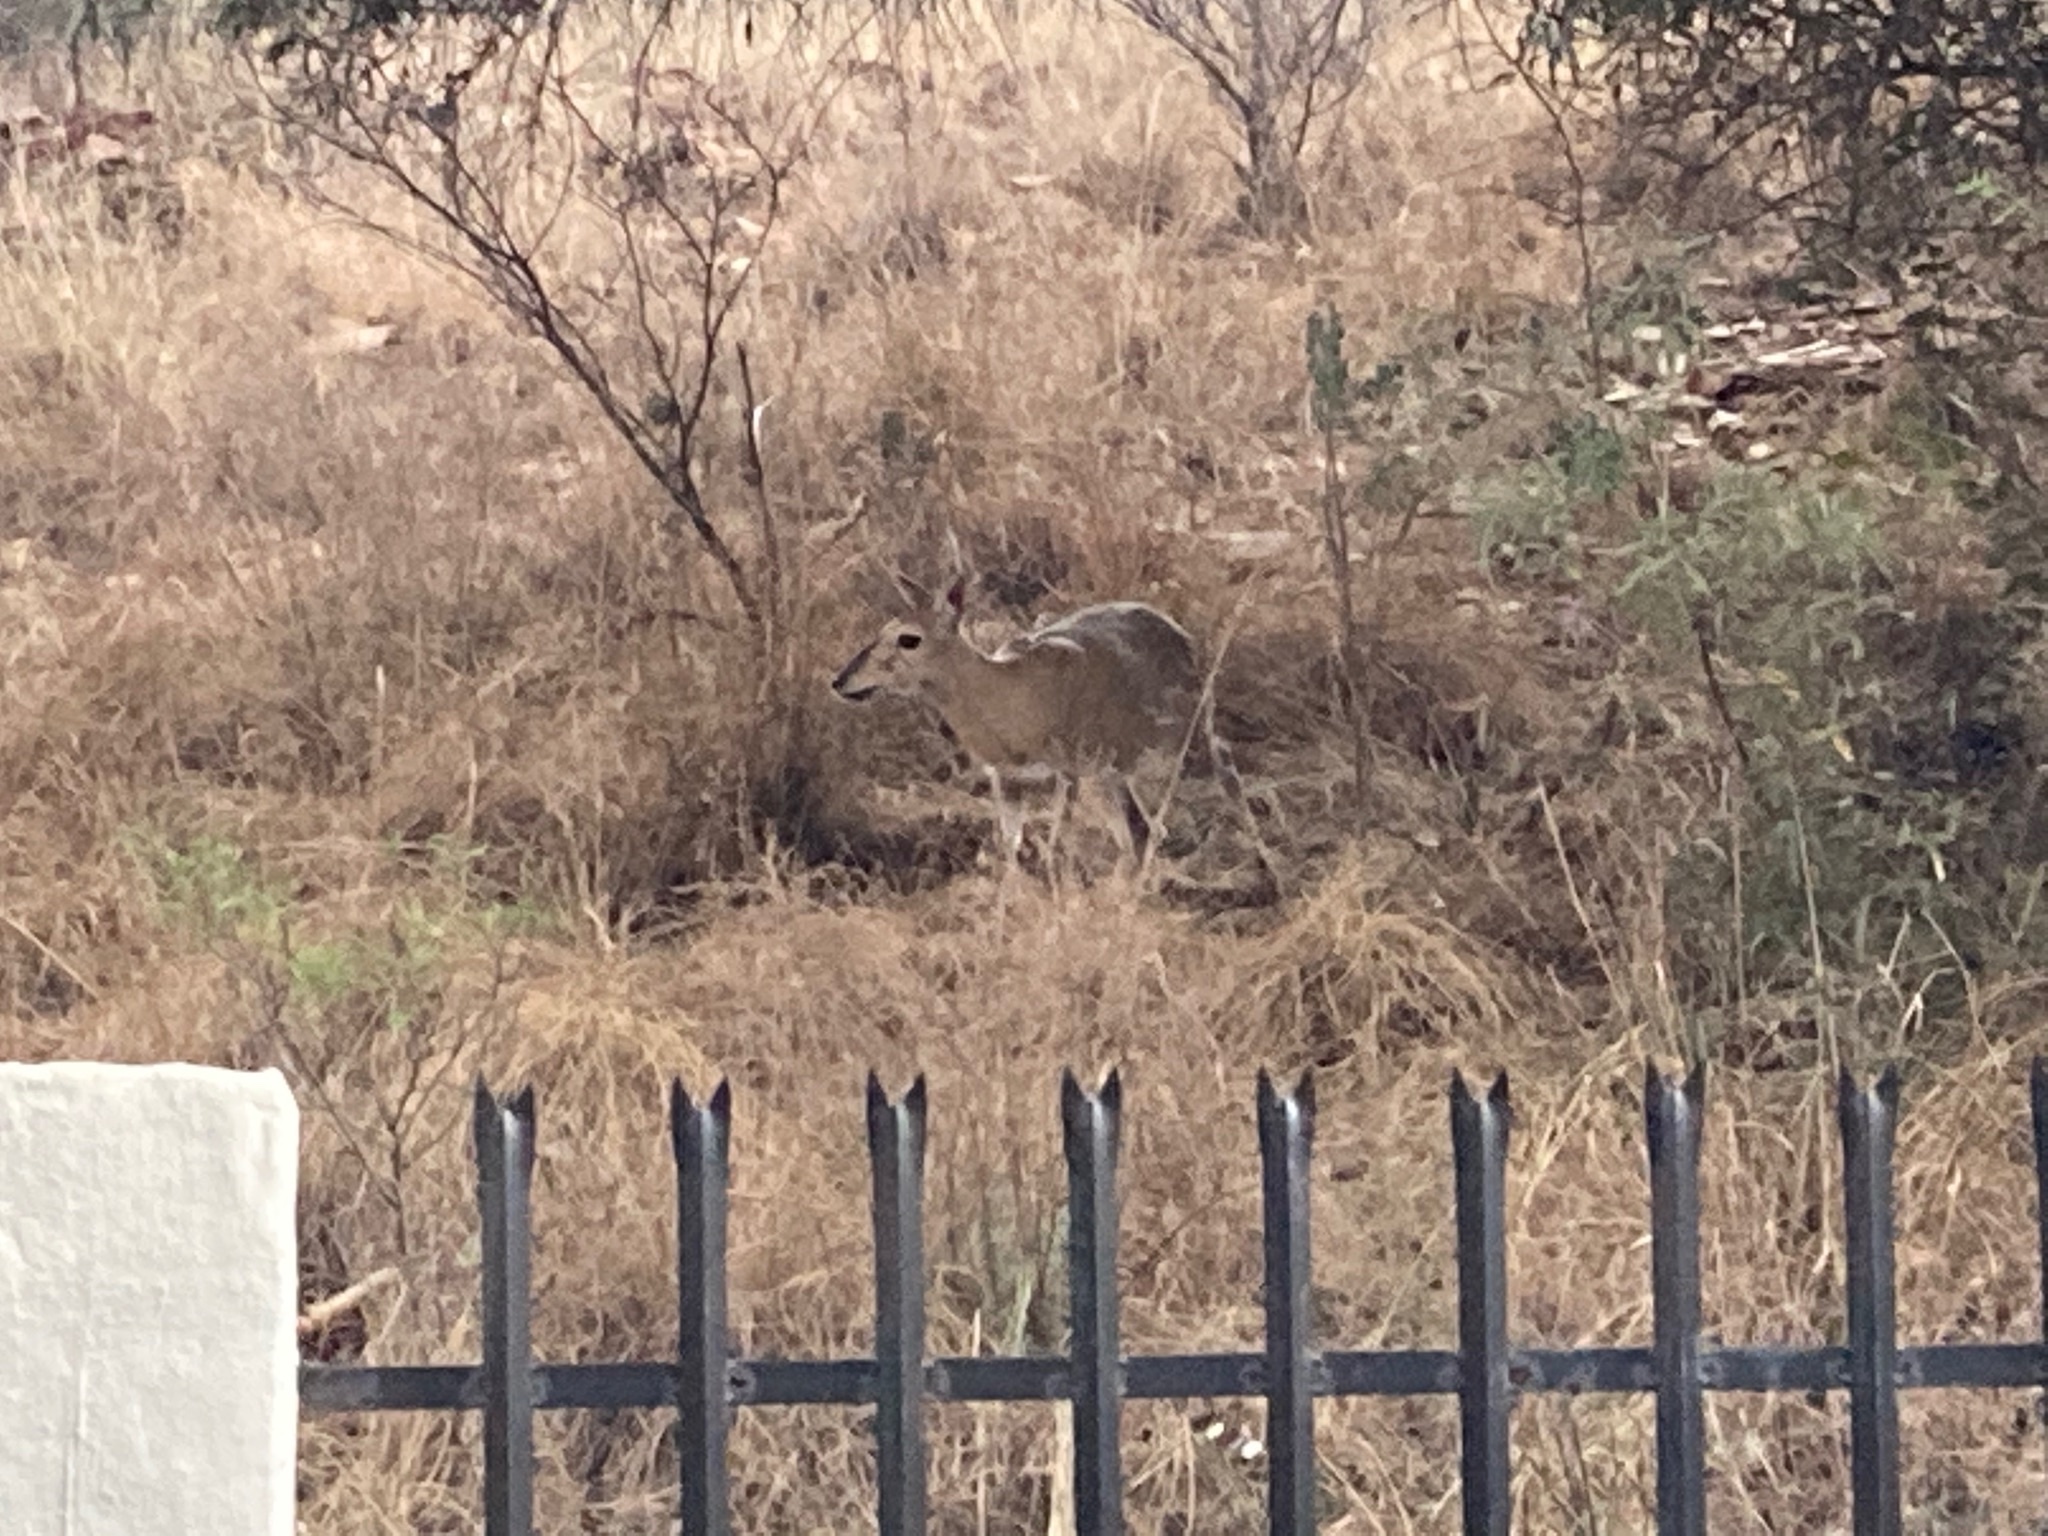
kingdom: Animalia
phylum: Chordata
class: Mammalia
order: Artiodactyla
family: Bovidae
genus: Sylvicapra
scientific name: Sylvicapra grimmia
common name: Bush duiker
